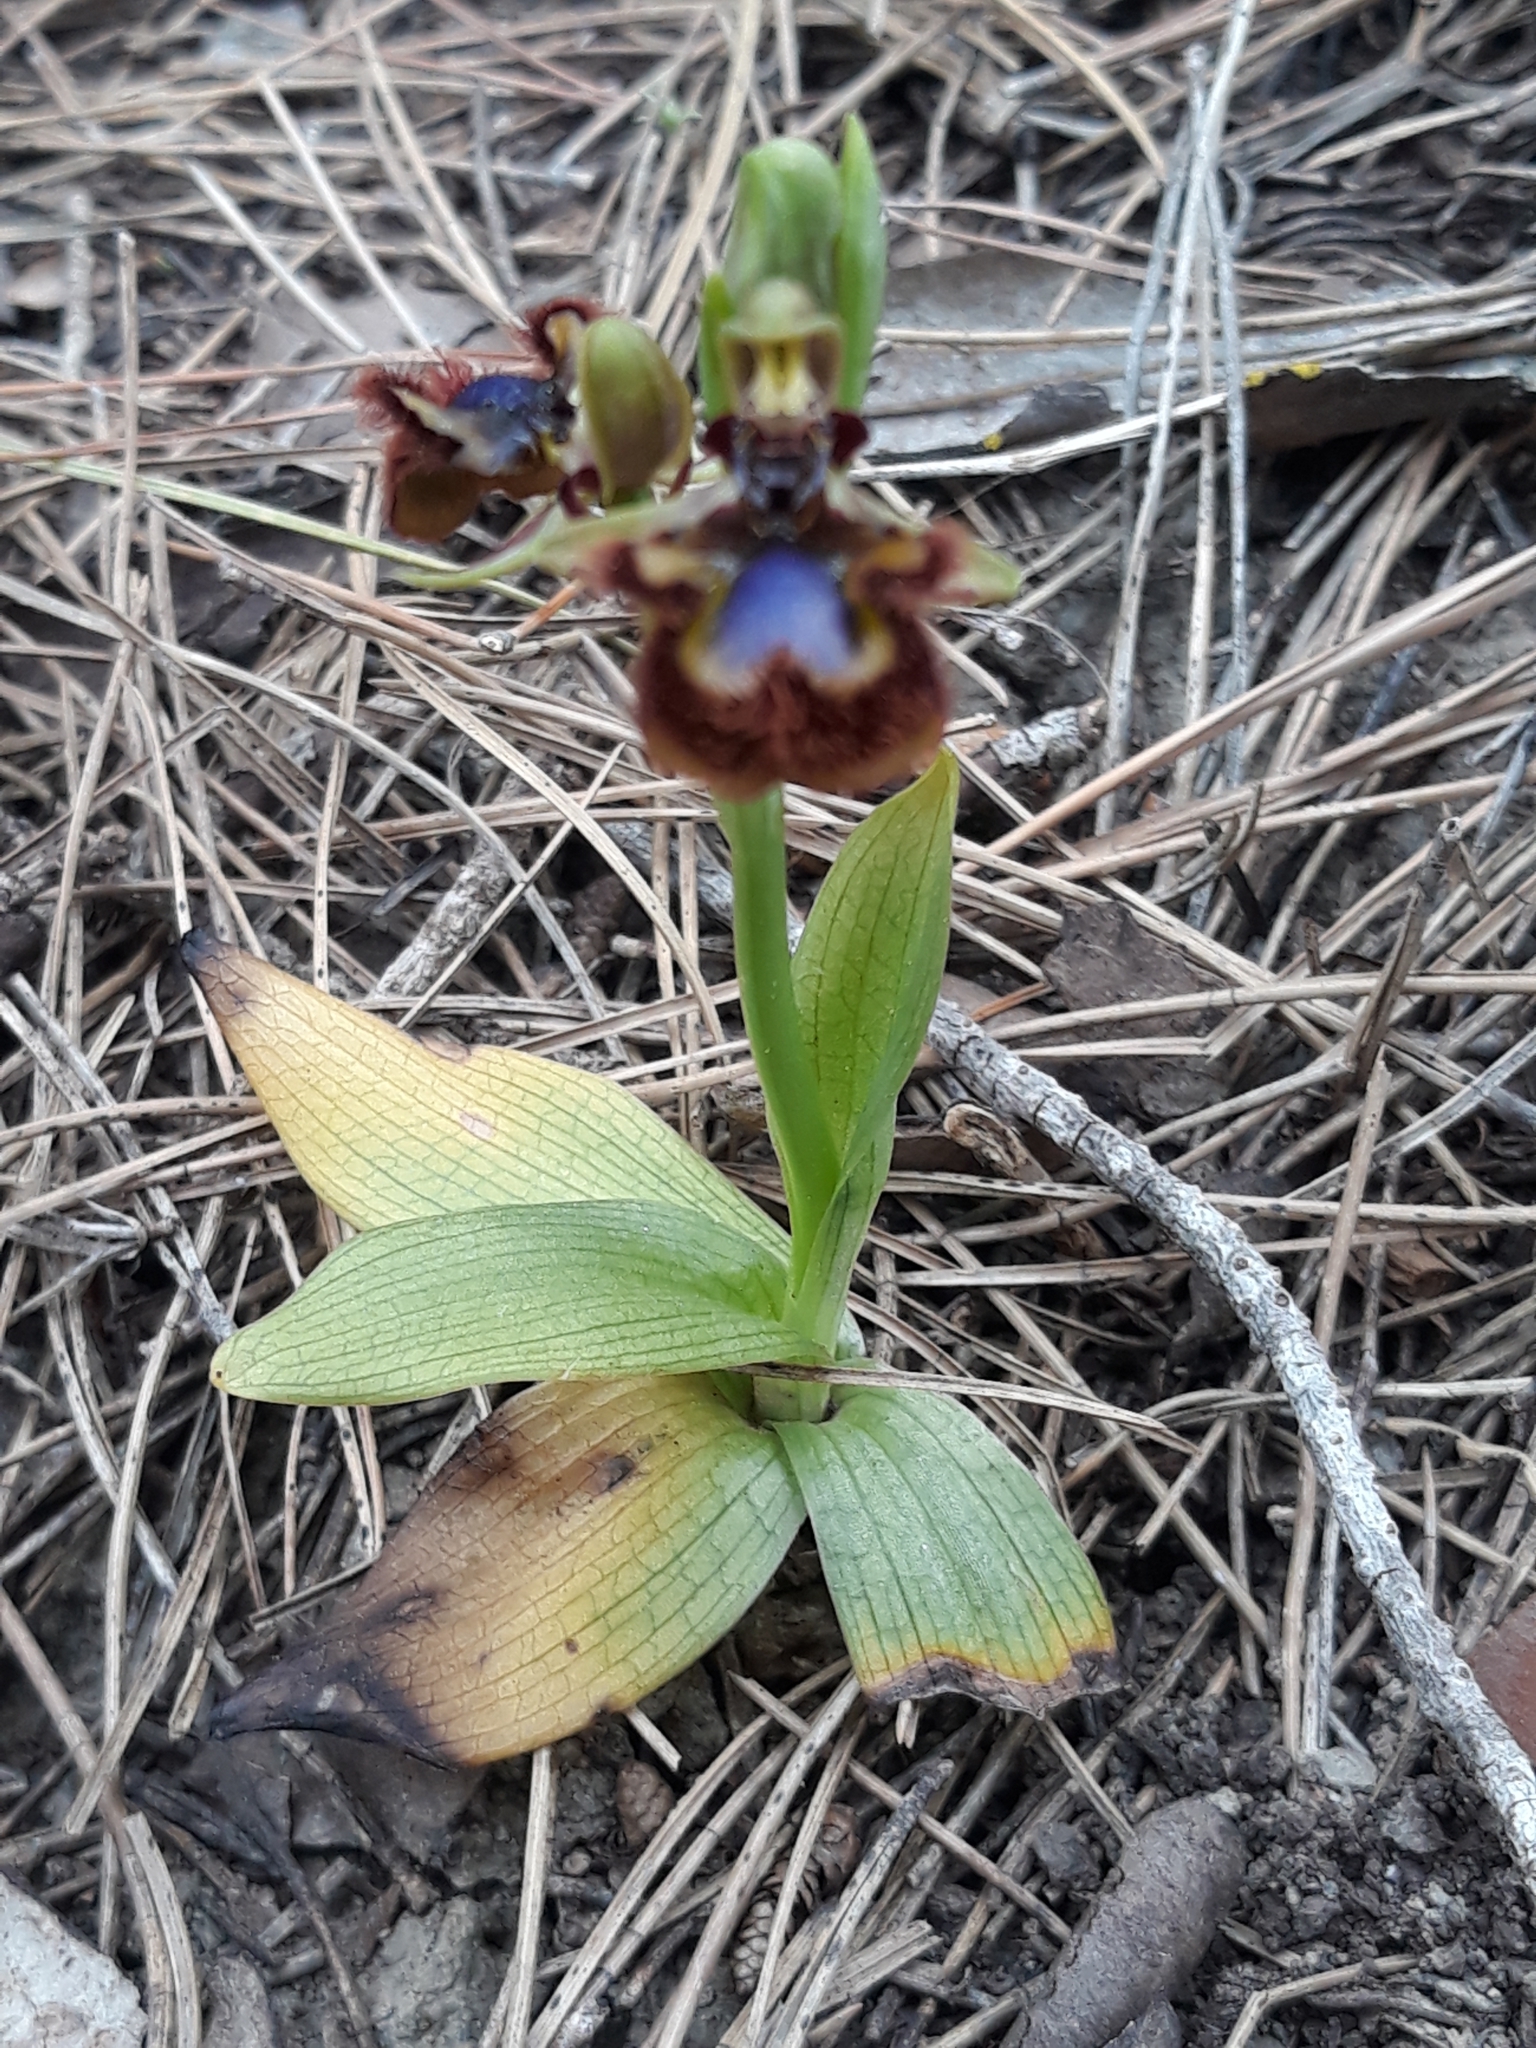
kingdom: Plantae
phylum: Tracheophyta
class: Liliopsida
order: Asparagales
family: Orchidaceae
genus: Ophrys
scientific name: Ophrys speculum
